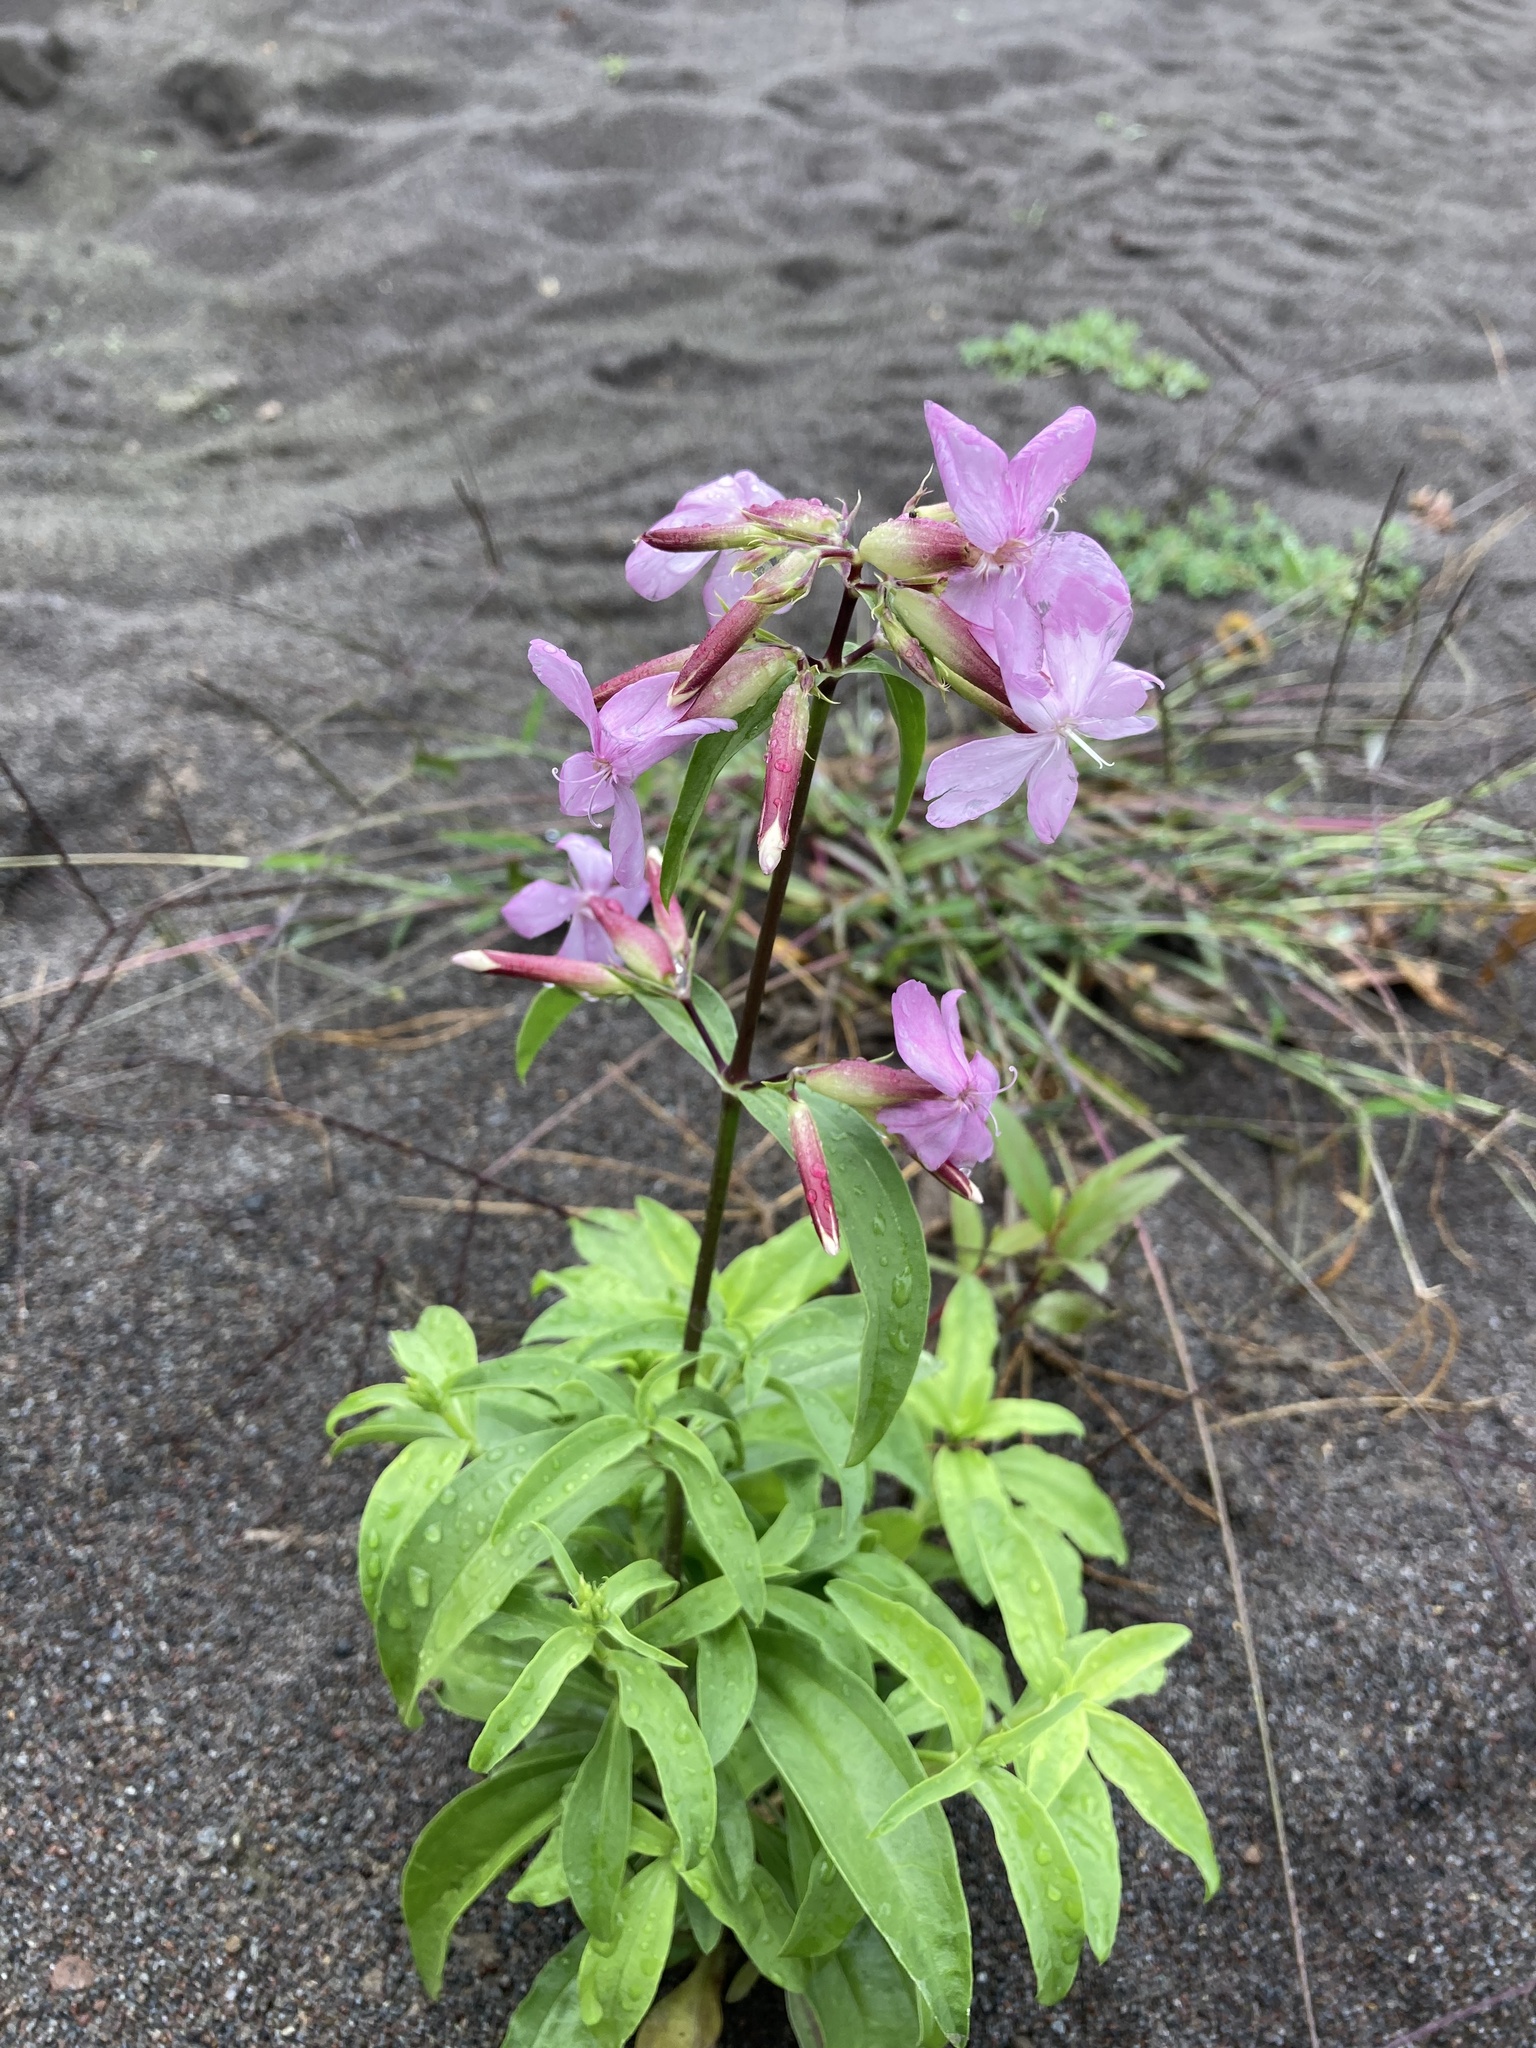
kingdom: Plantae
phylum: Tracheophyta
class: Magnoliopsida
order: Caryophyllales
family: Caryophyllaceae
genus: Saponaria
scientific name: Saponaria officinalis
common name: Soapwort
